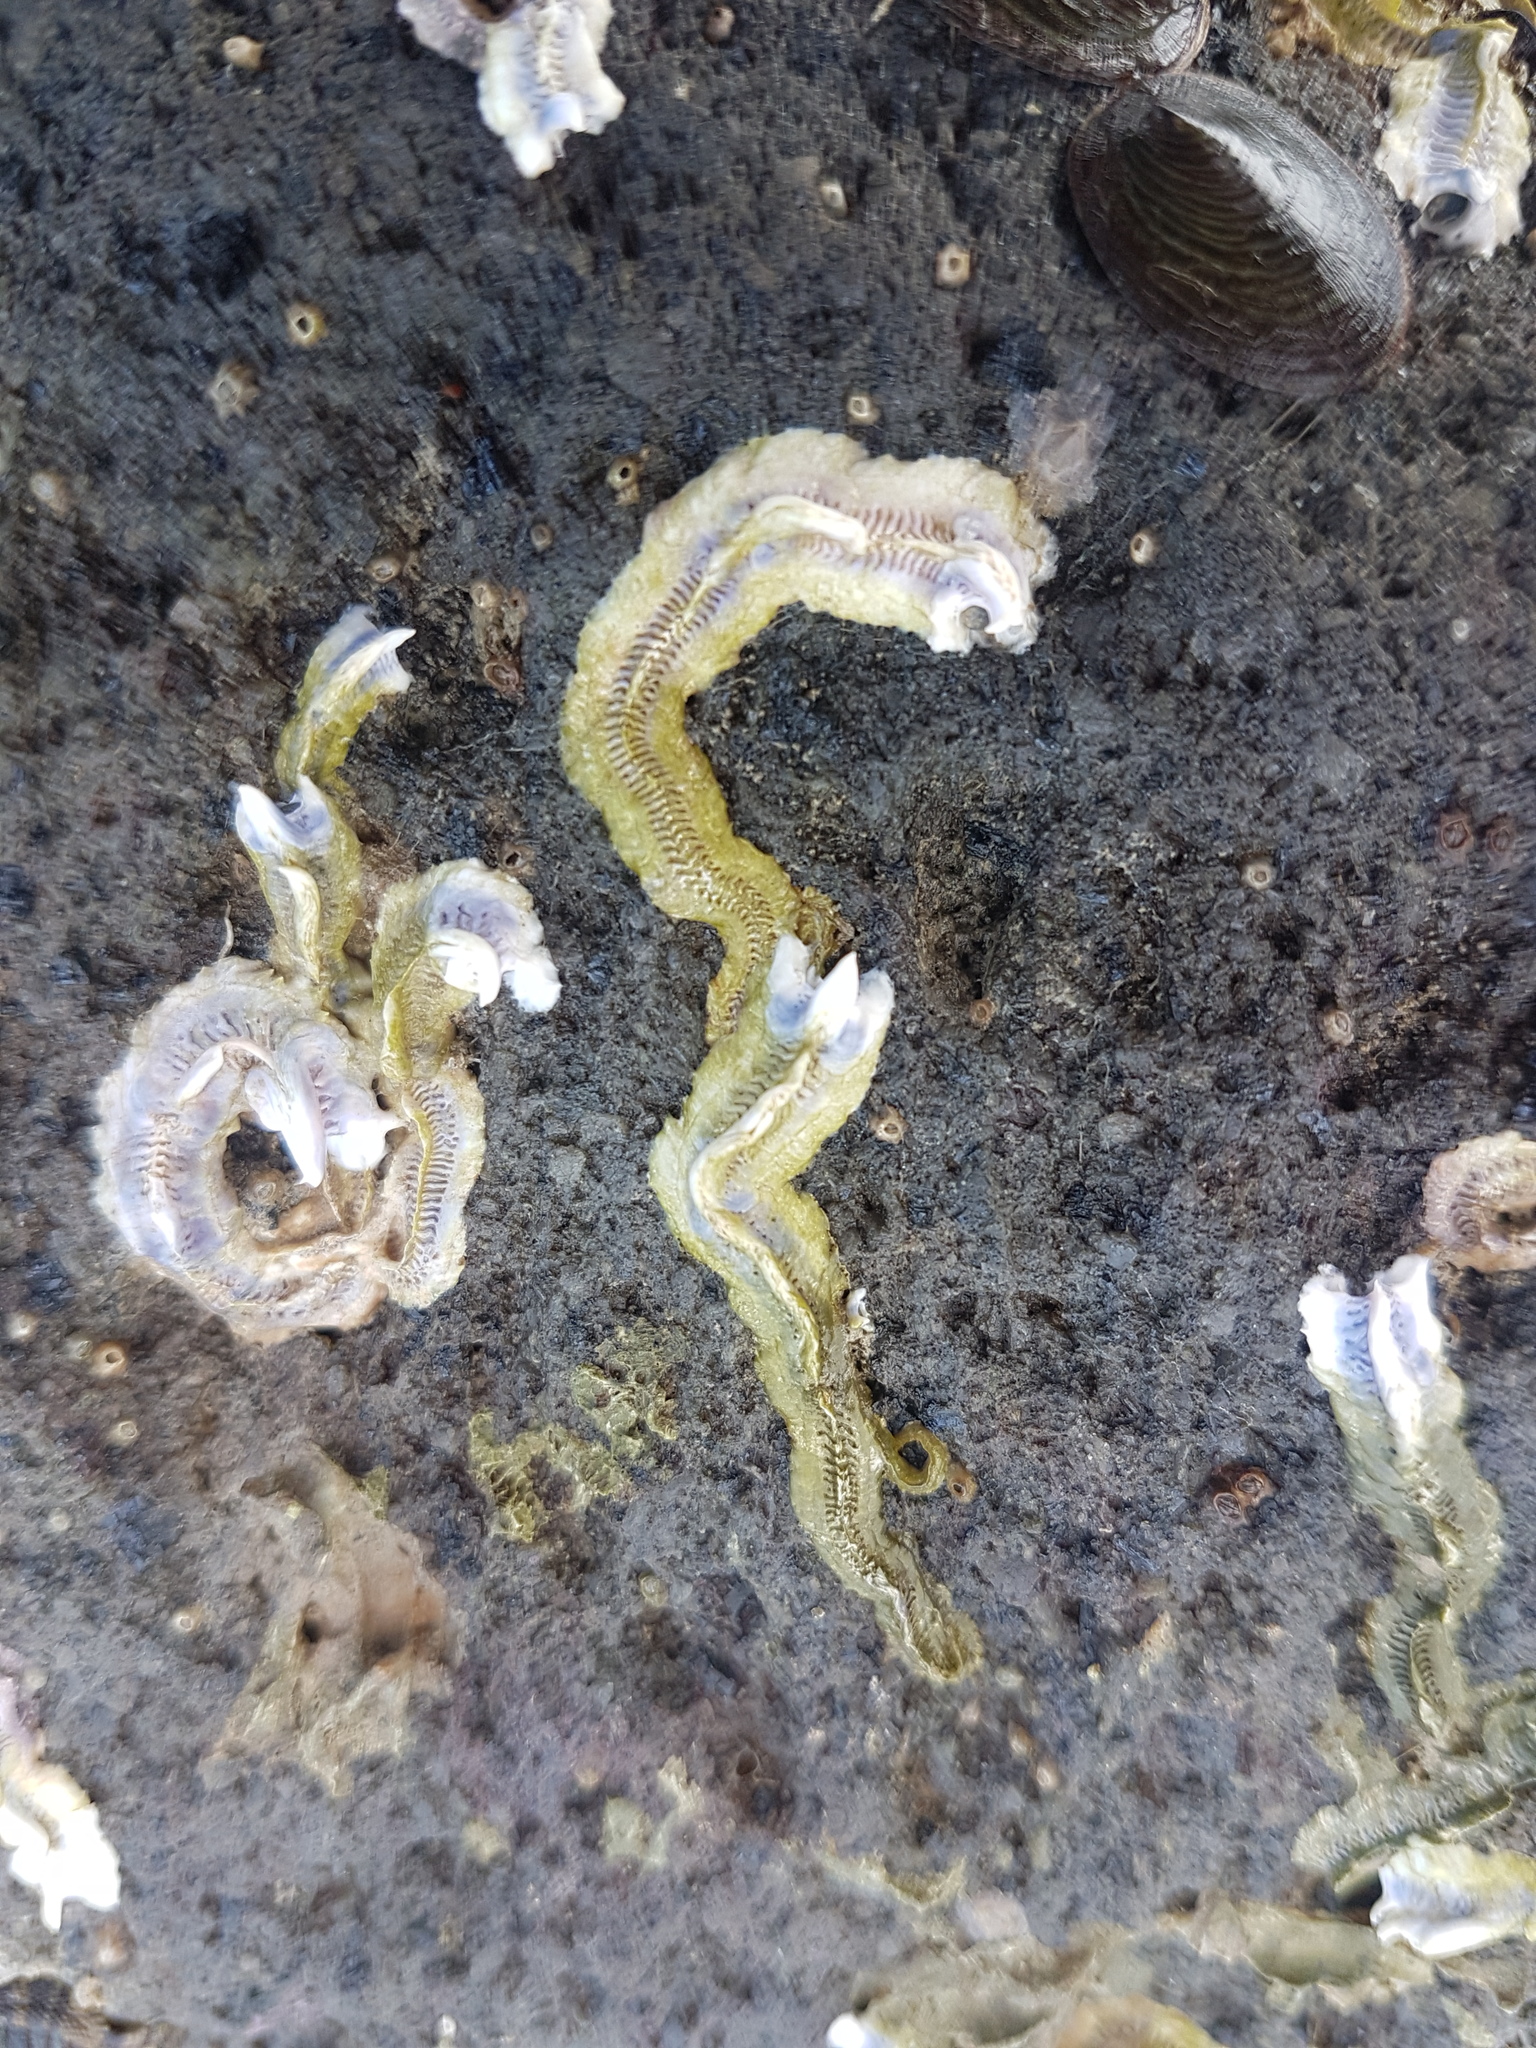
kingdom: Animalia
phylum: Annelida
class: Polychaeta
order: Sabellida
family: Serpulidae
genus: Spirobranchus
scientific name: Spirobranchus cariniferus
